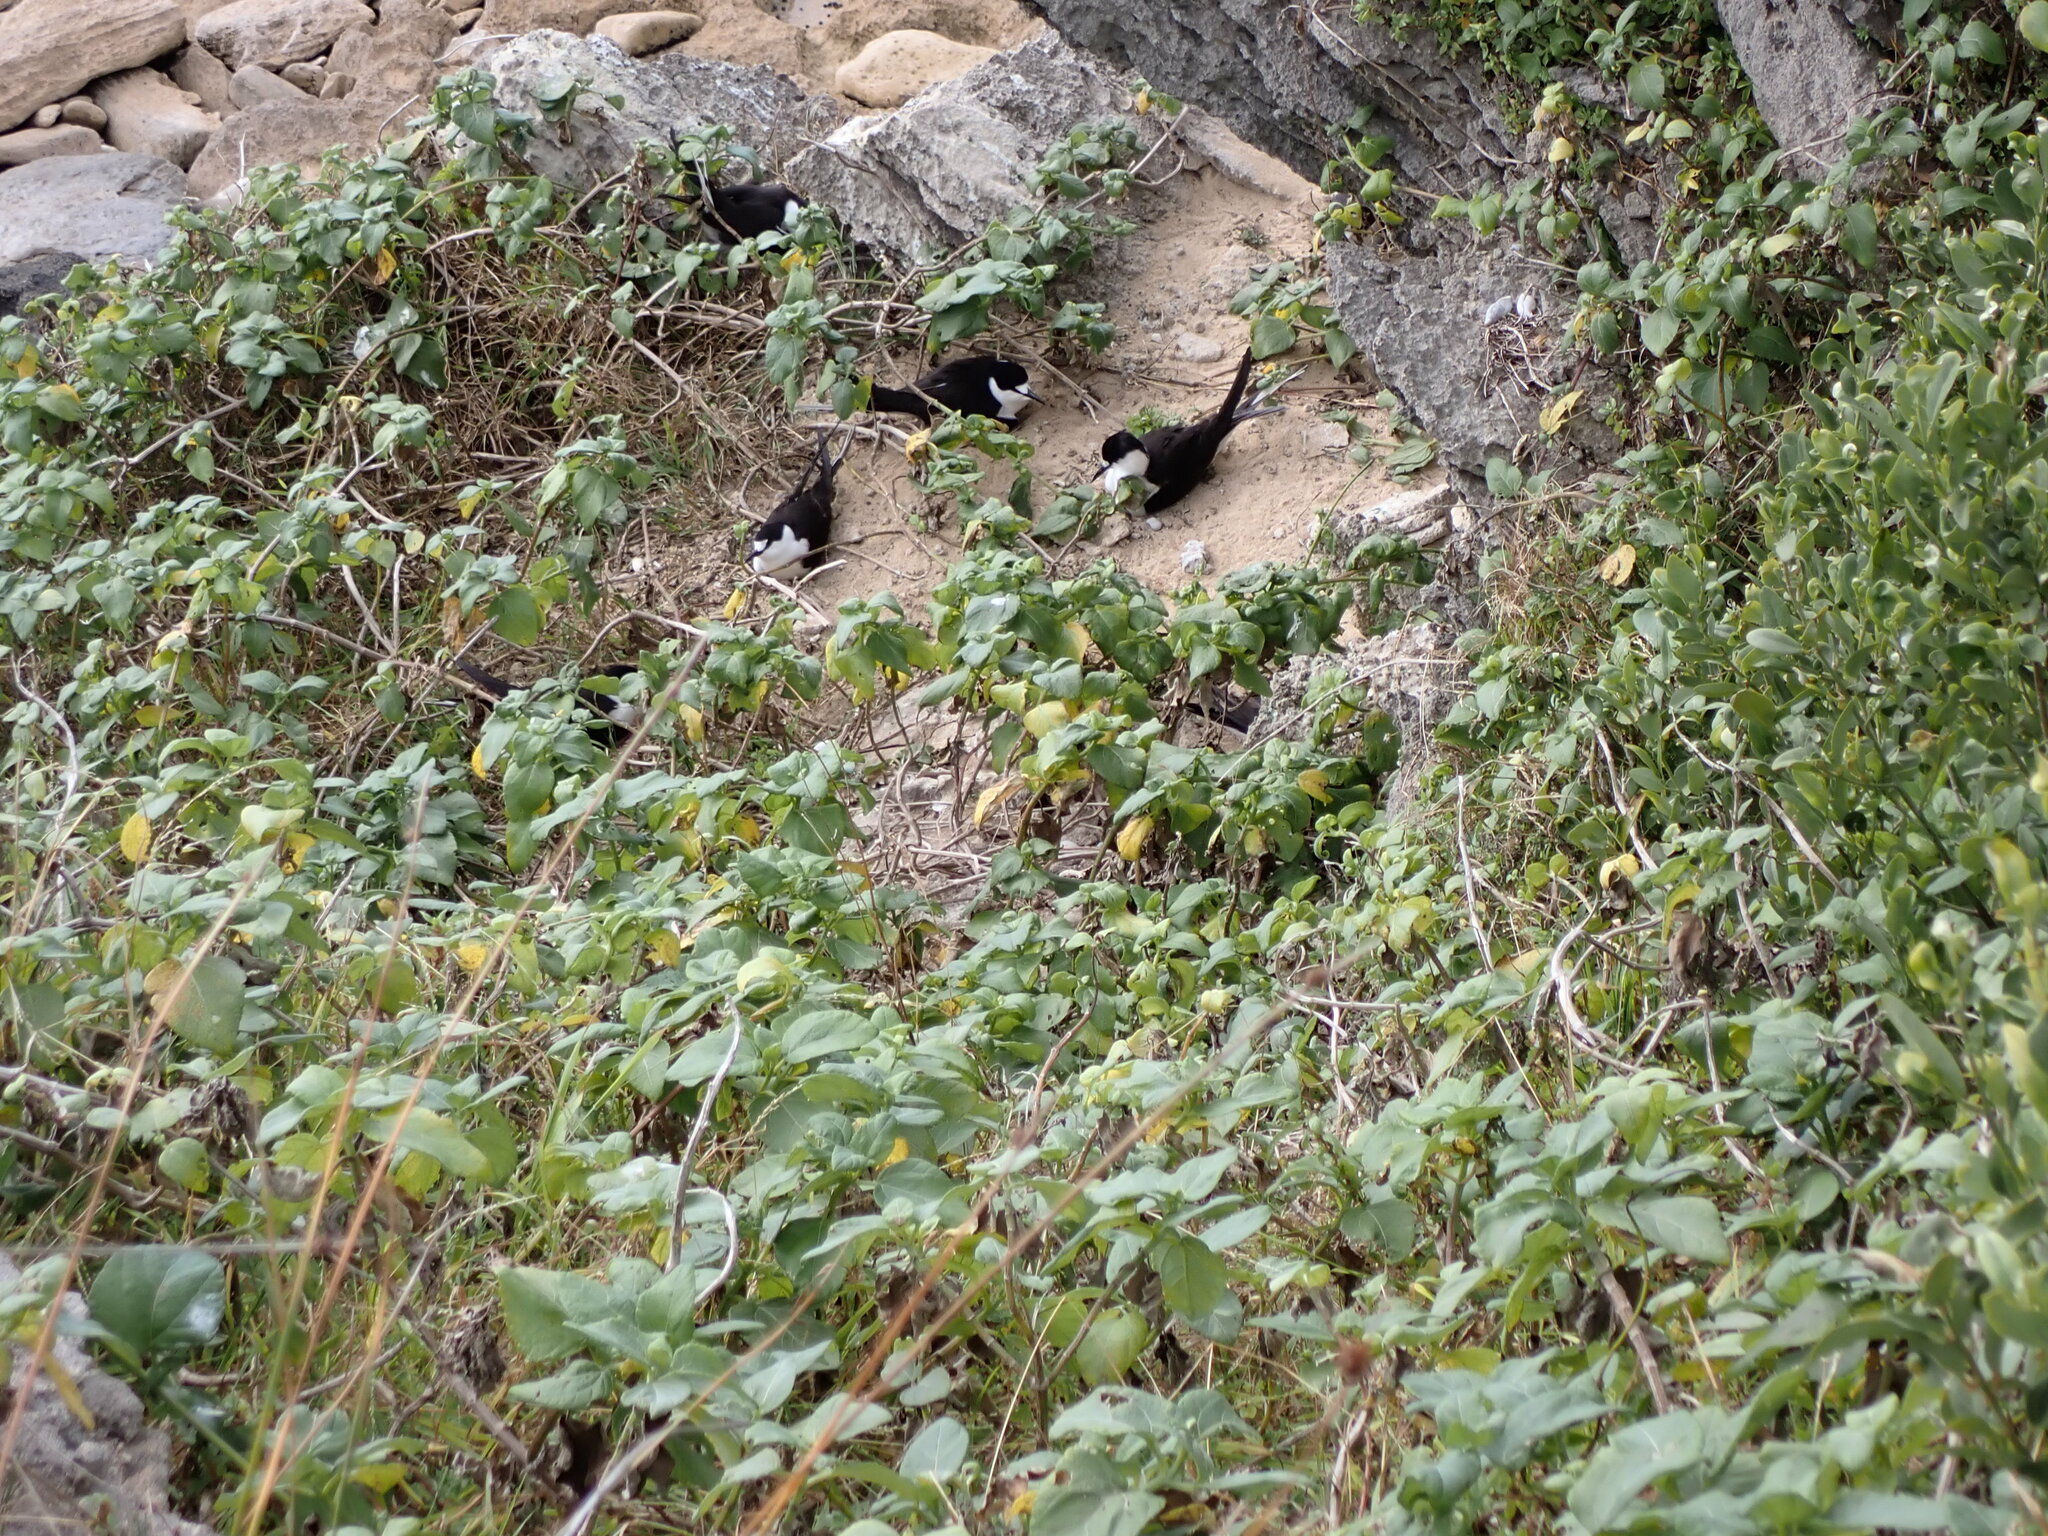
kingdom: Animalia
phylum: Chordata
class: Aves
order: Charadriiformes
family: Laridae
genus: Onychoprion
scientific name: Onychoprion fuscatus
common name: Sooty tern
